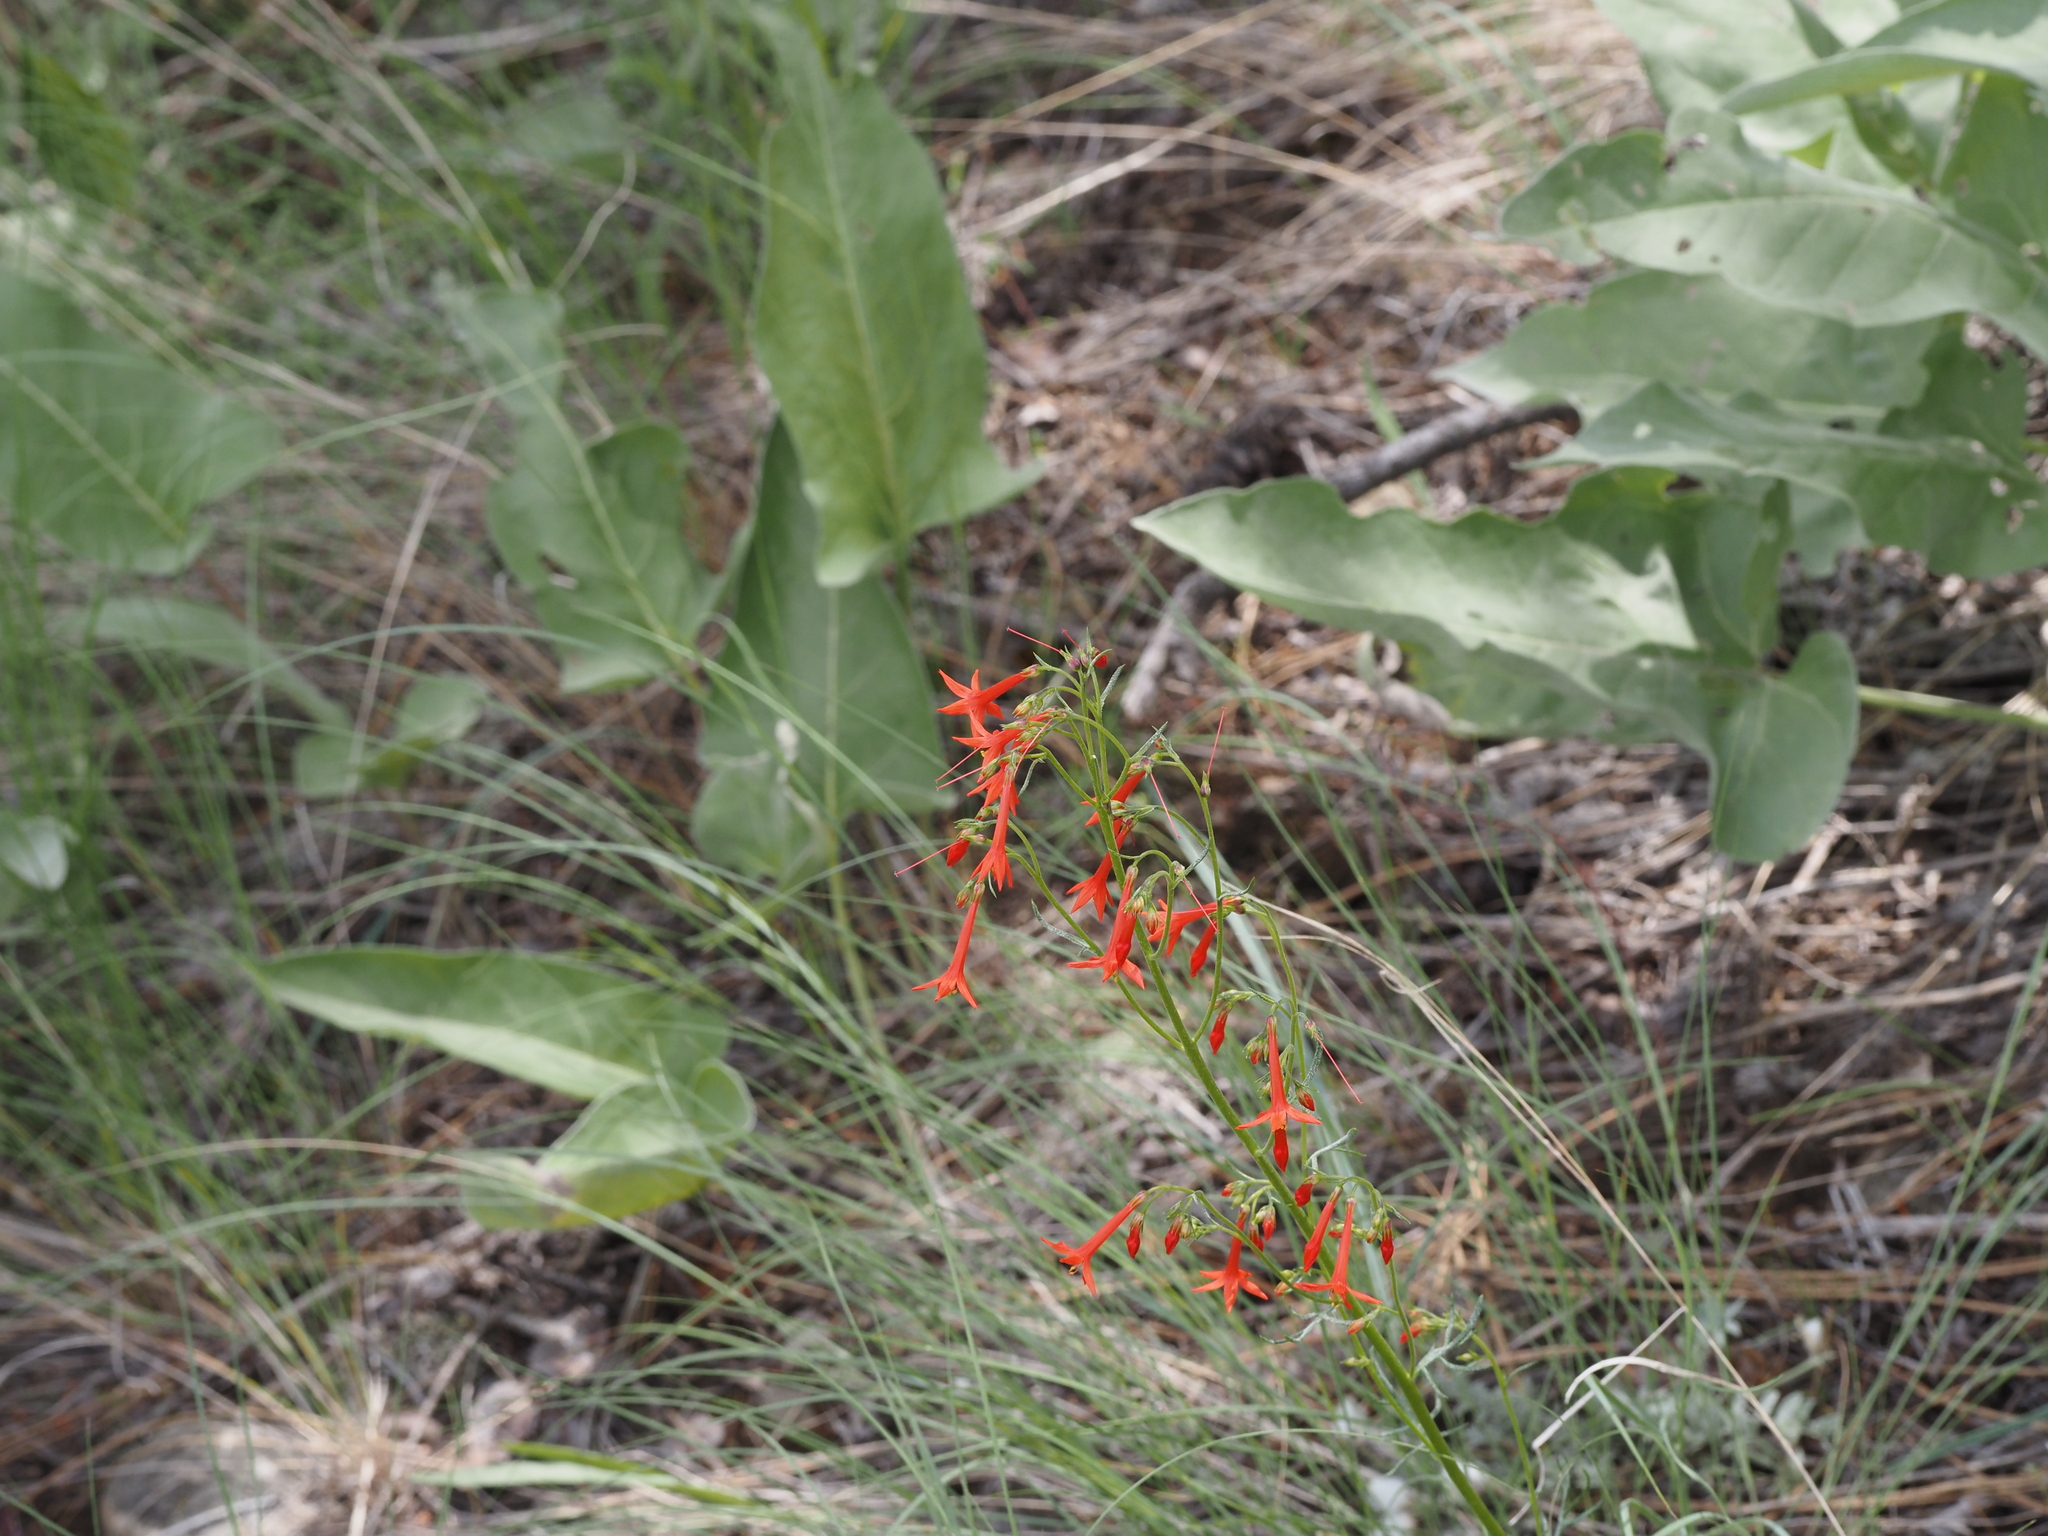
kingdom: Plantae
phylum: Tracheophyta
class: Magnoliopsida
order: Ericales
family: Polemoniaceae
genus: Ipomopsis
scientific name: Ipomopsis aggregata
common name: Scarlet gilia
